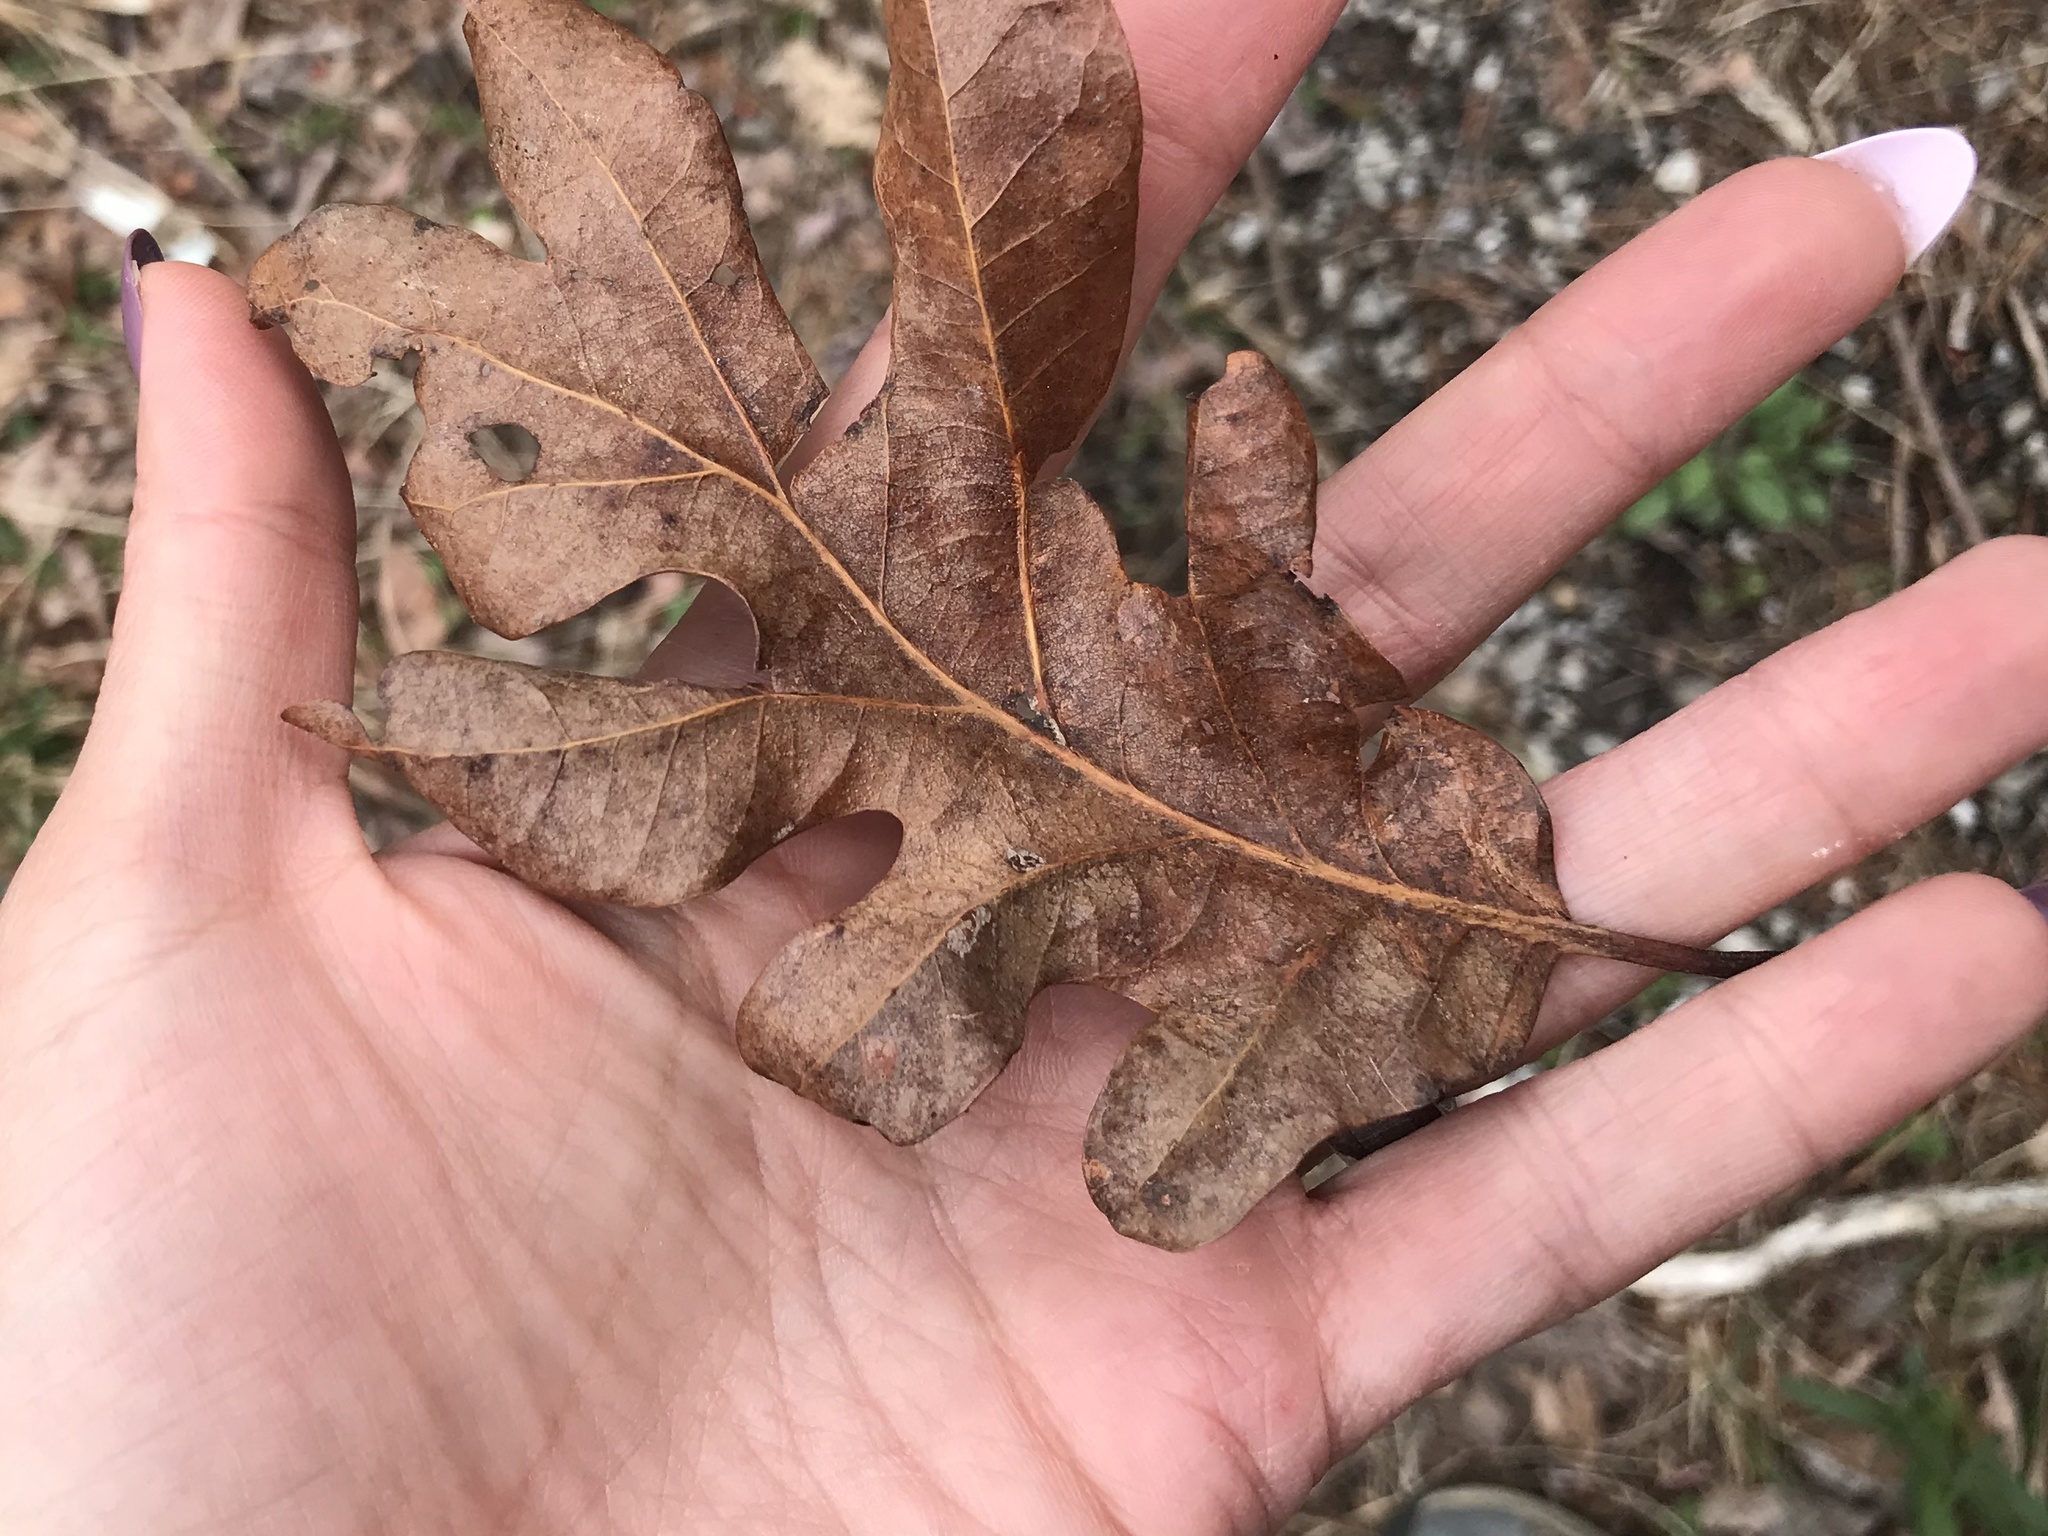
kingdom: Plantae
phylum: Tracheophyta
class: Magnoliopsida
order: Fagales
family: Fagaceae
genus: Quercus
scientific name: Quercus alba
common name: White oak
